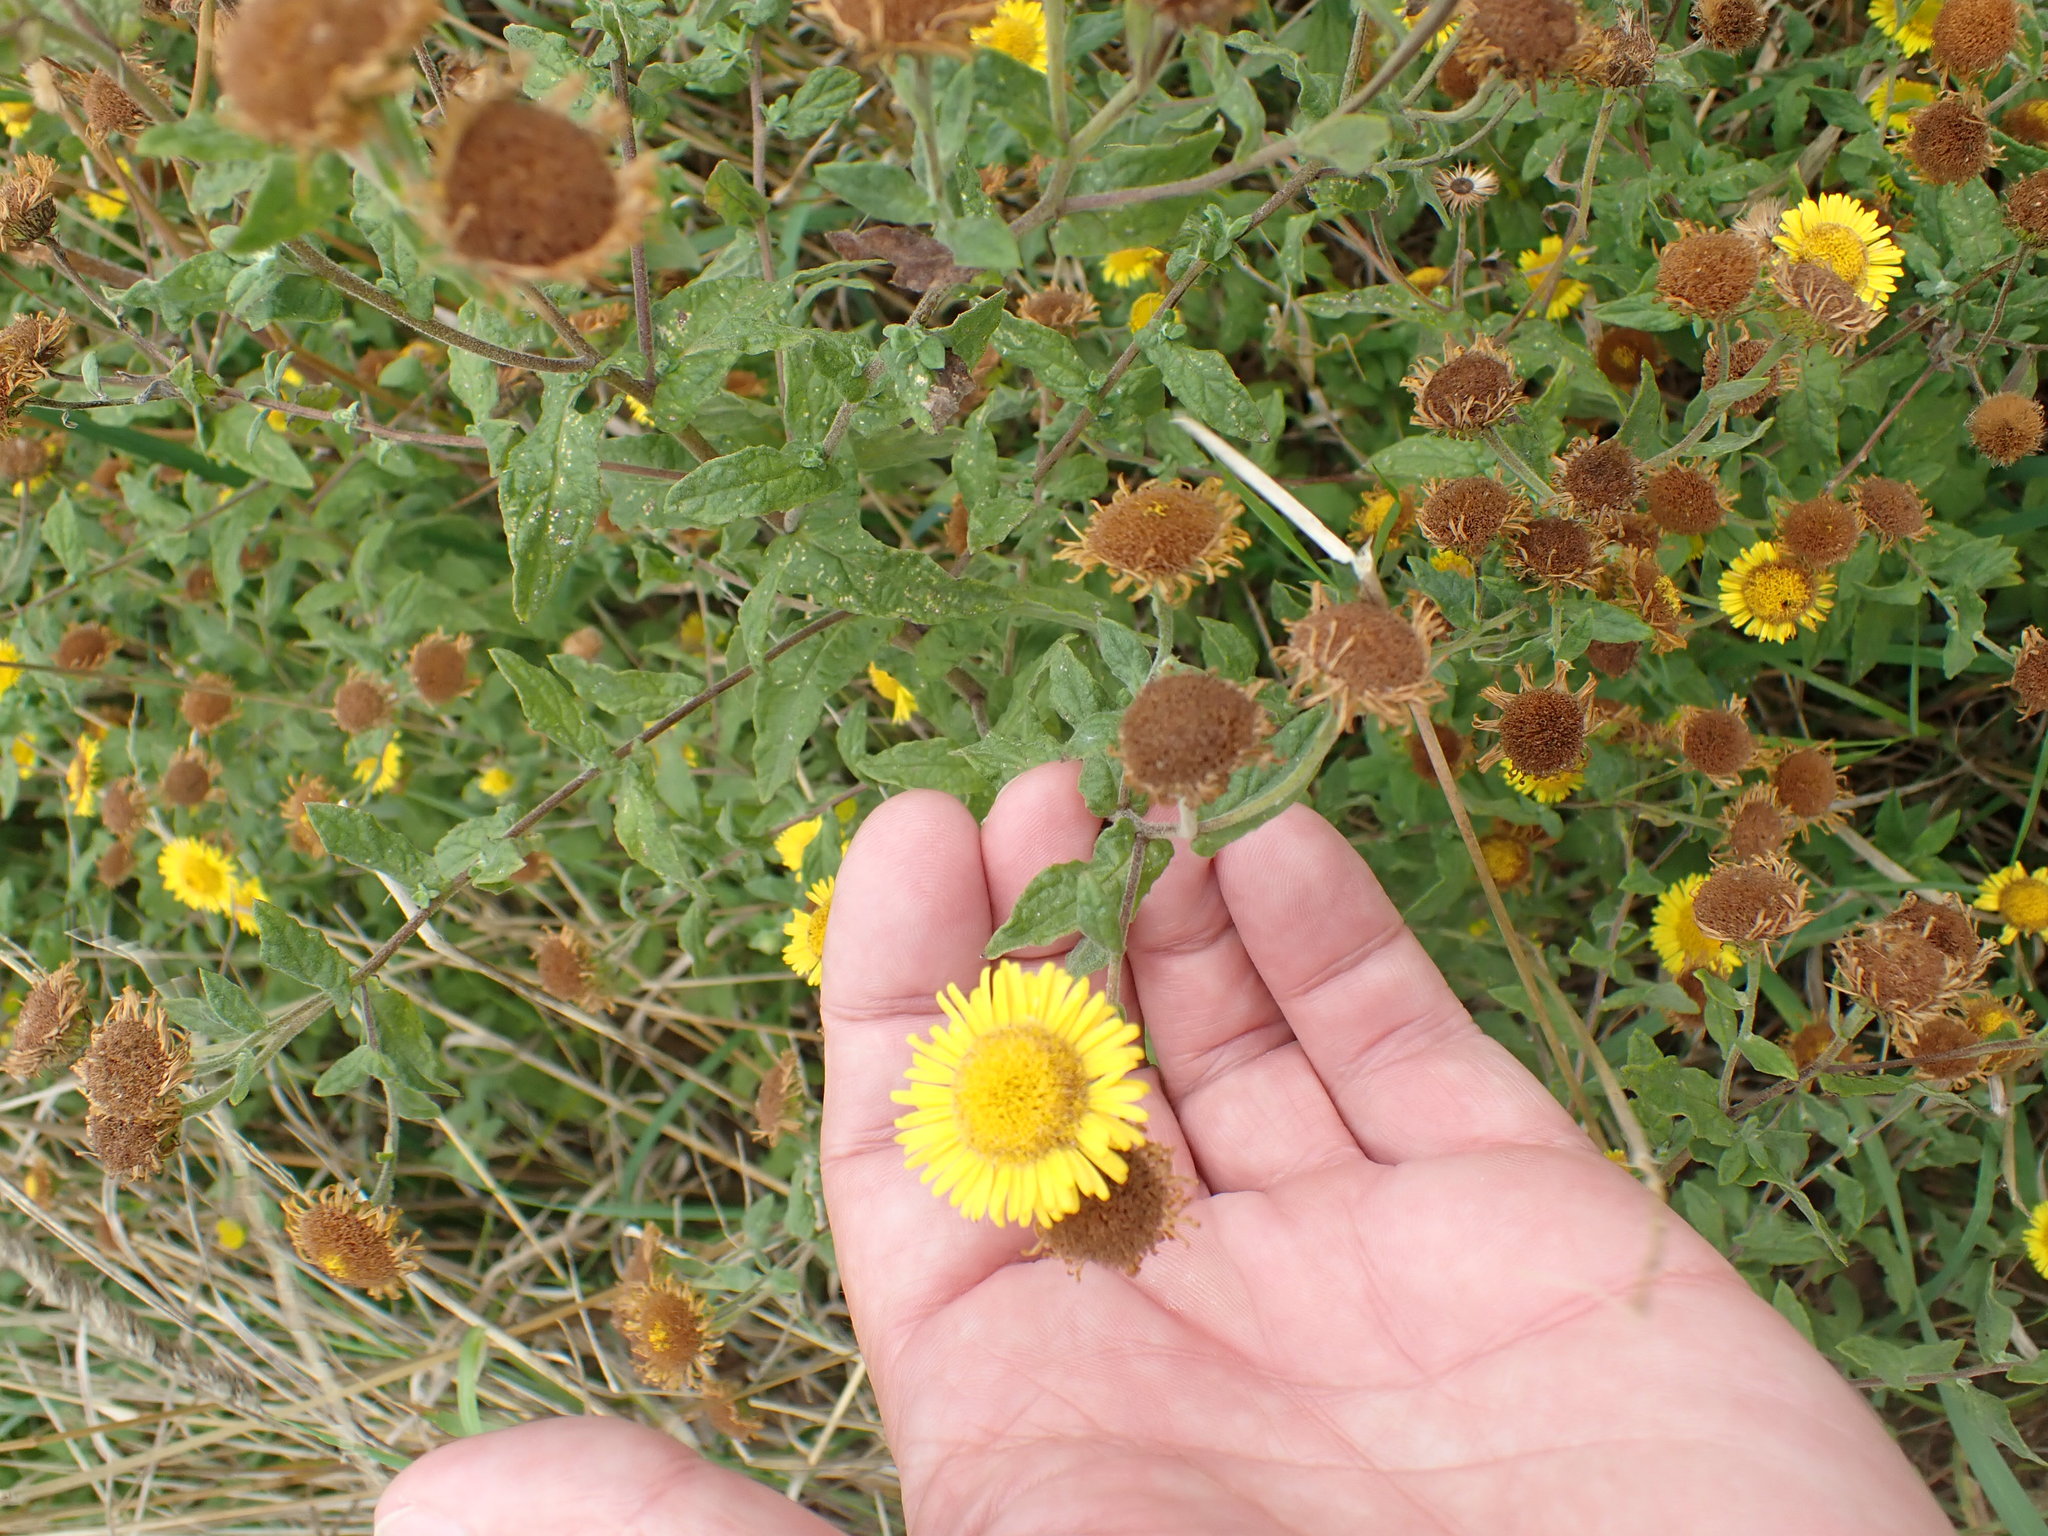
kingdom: Plantae
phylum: Tracheophyta
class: Magnoliopsida
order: Asterales
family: Asteraceae
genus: Pulicaria
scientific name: Pulicaria dysenterica
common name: Common fleabane
